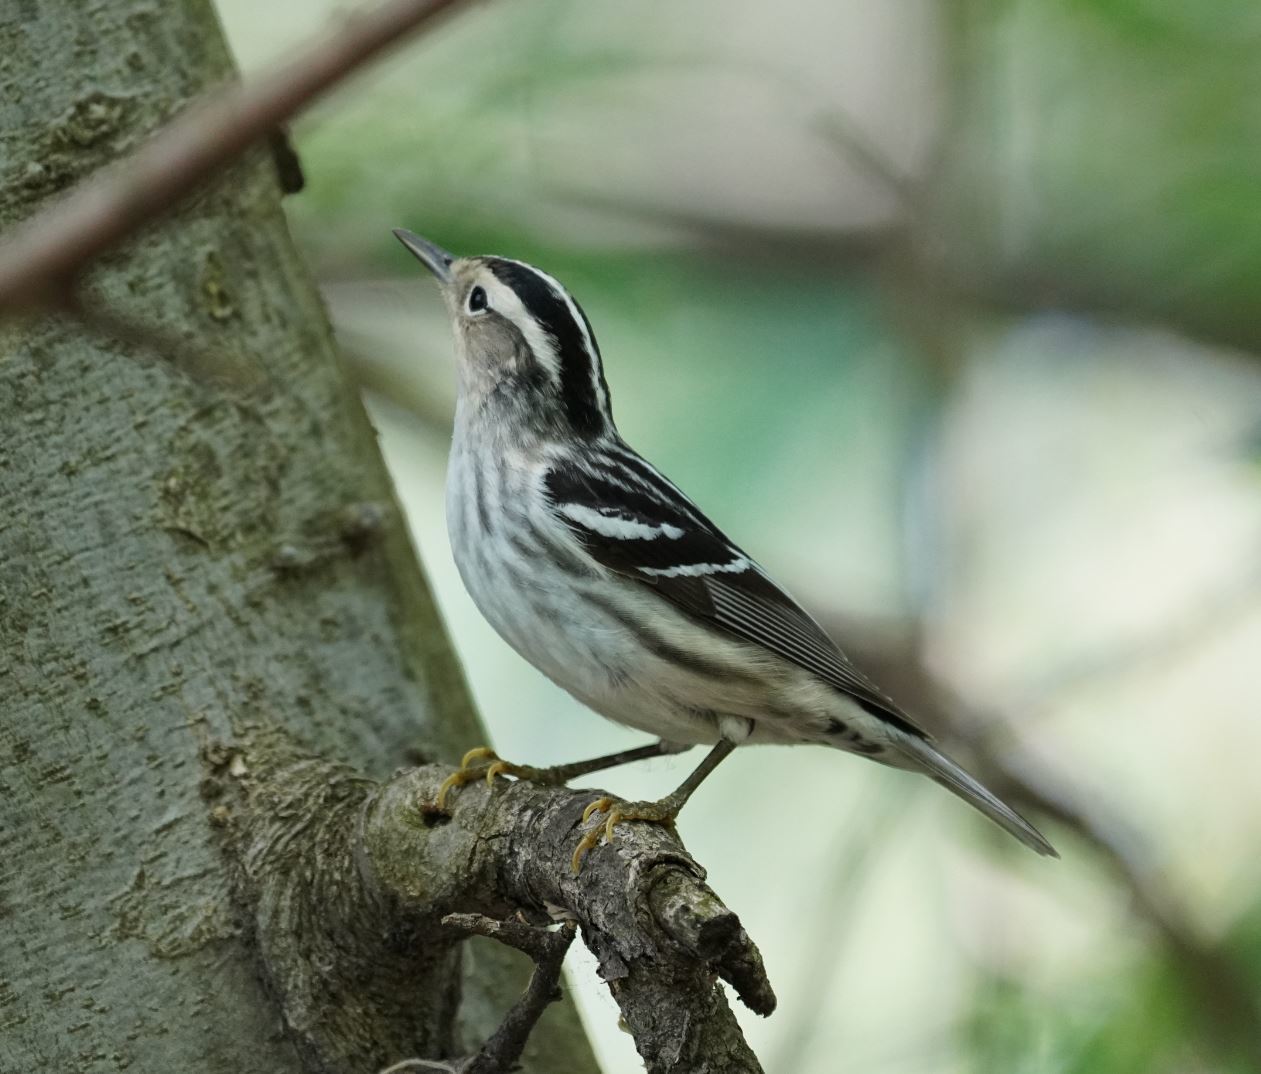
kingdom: Animalia
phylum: Chordata
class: Aves
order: Passeriformes
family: Parulidae
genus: Mniotilta
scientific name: Mniotilta varia
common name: Black-and-white warbler
